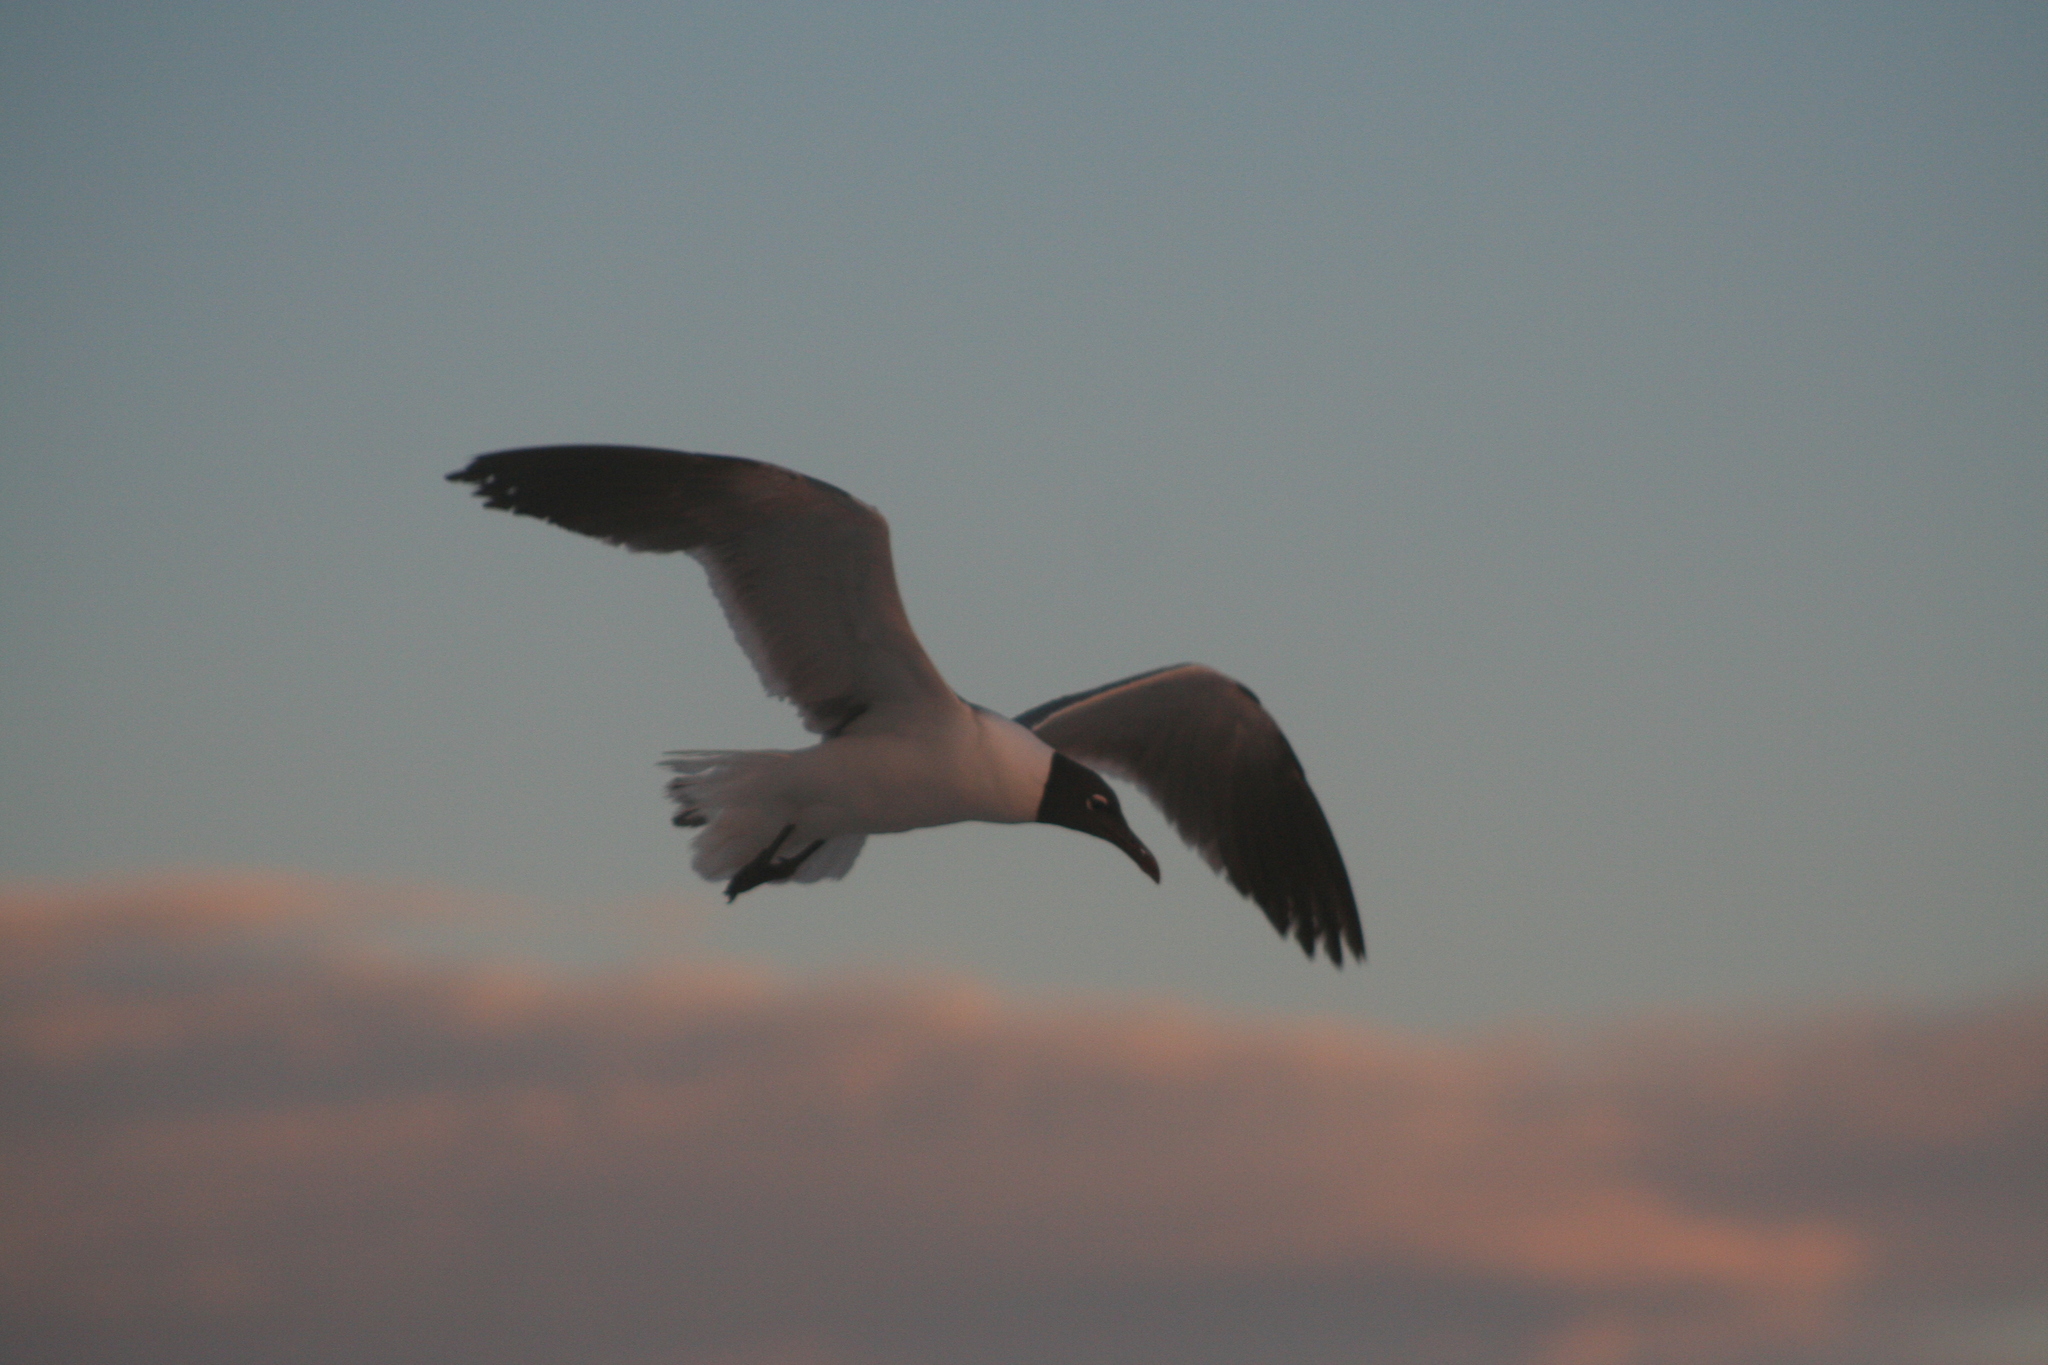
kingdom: Animalia
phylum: Chordata
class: Aves
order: Charadriiformes
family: Laridae
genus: Leucophaeus
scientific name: Leucophaeus atricilla
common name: Laughing gull
